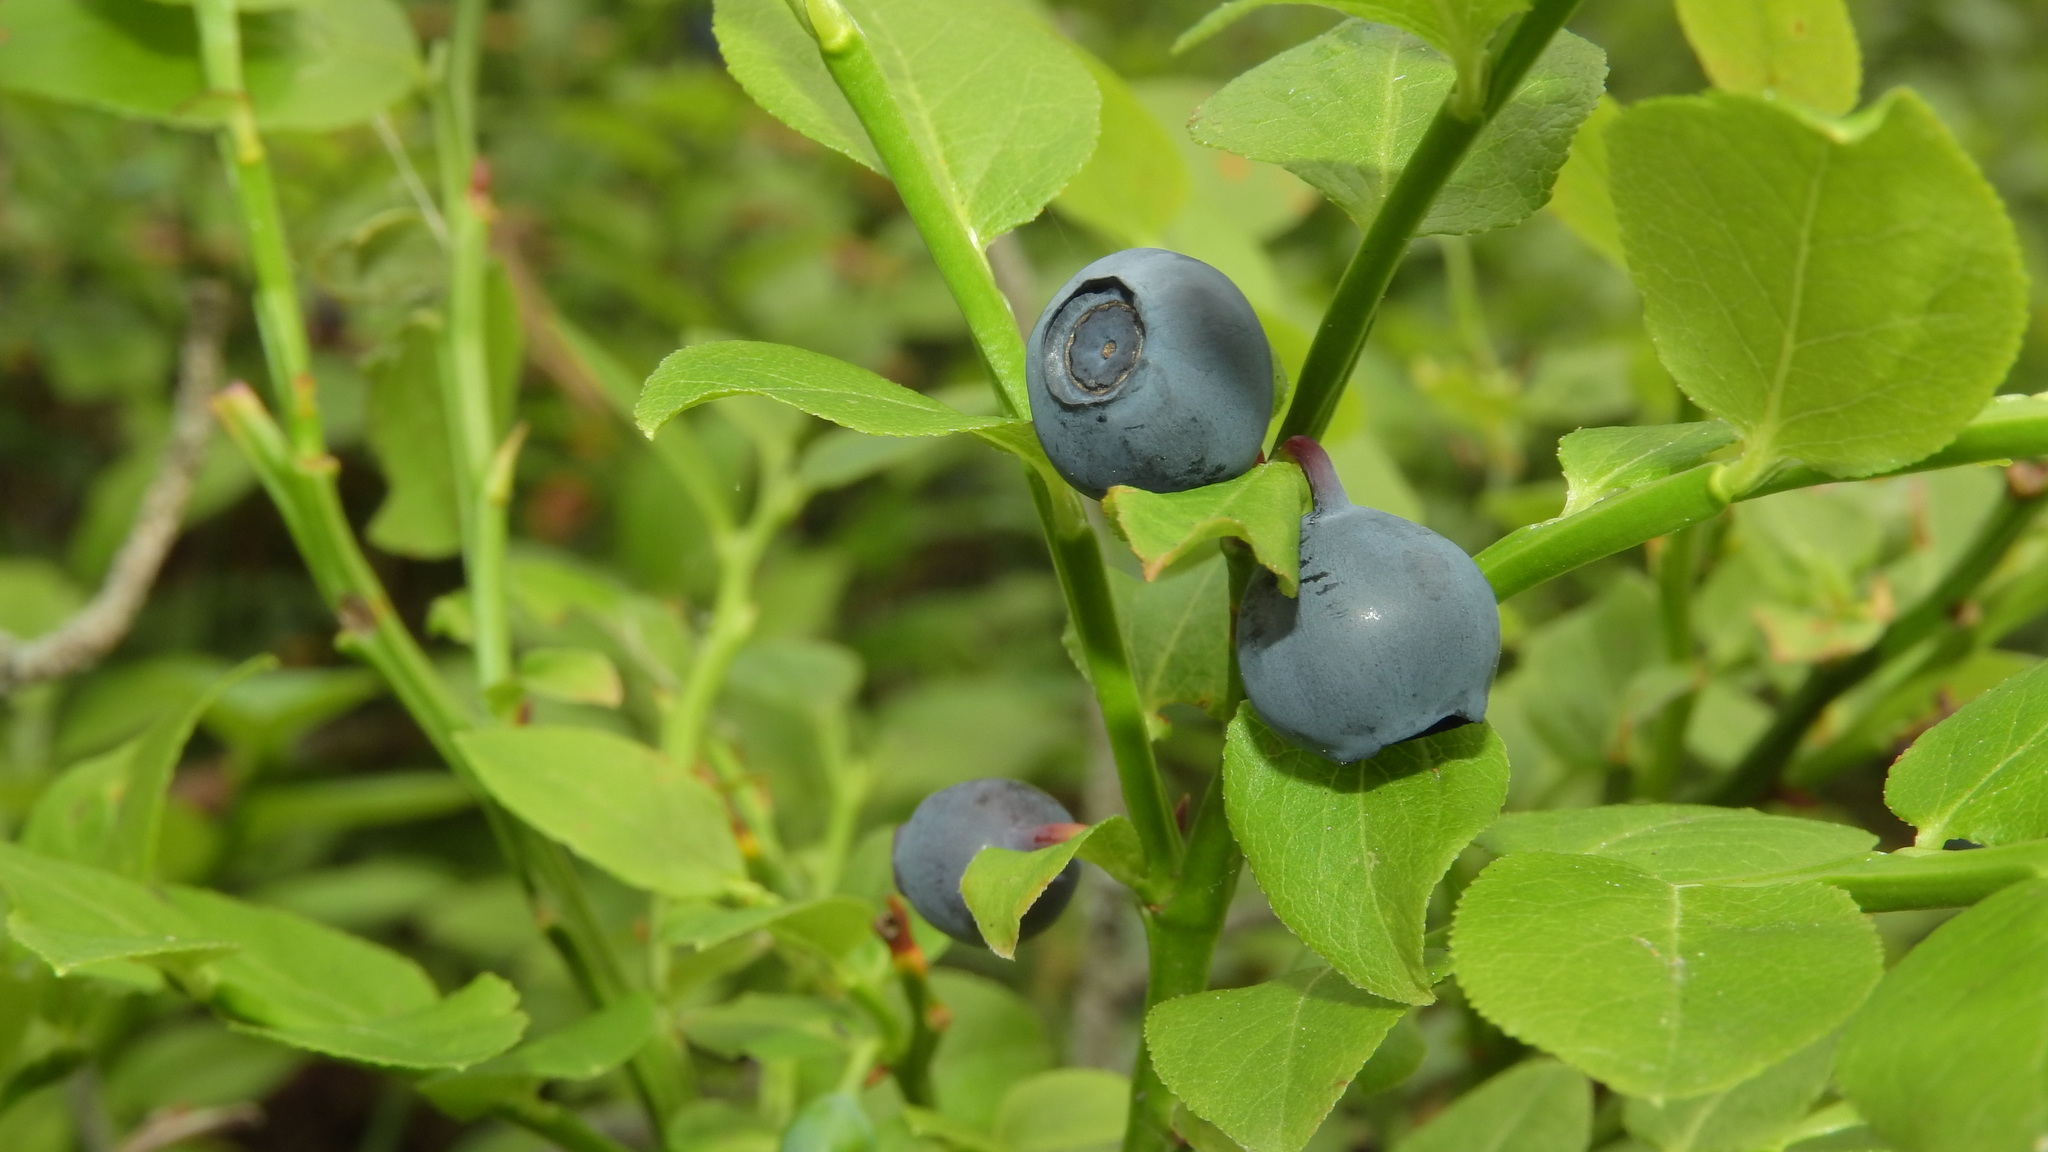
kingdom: Plantae
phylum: Tracheophyta
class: Magnoliopsida
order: Ericales
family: Ericaceae
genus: Vaccinium
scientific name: Vaccinium myrtillus
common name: Bilberry
